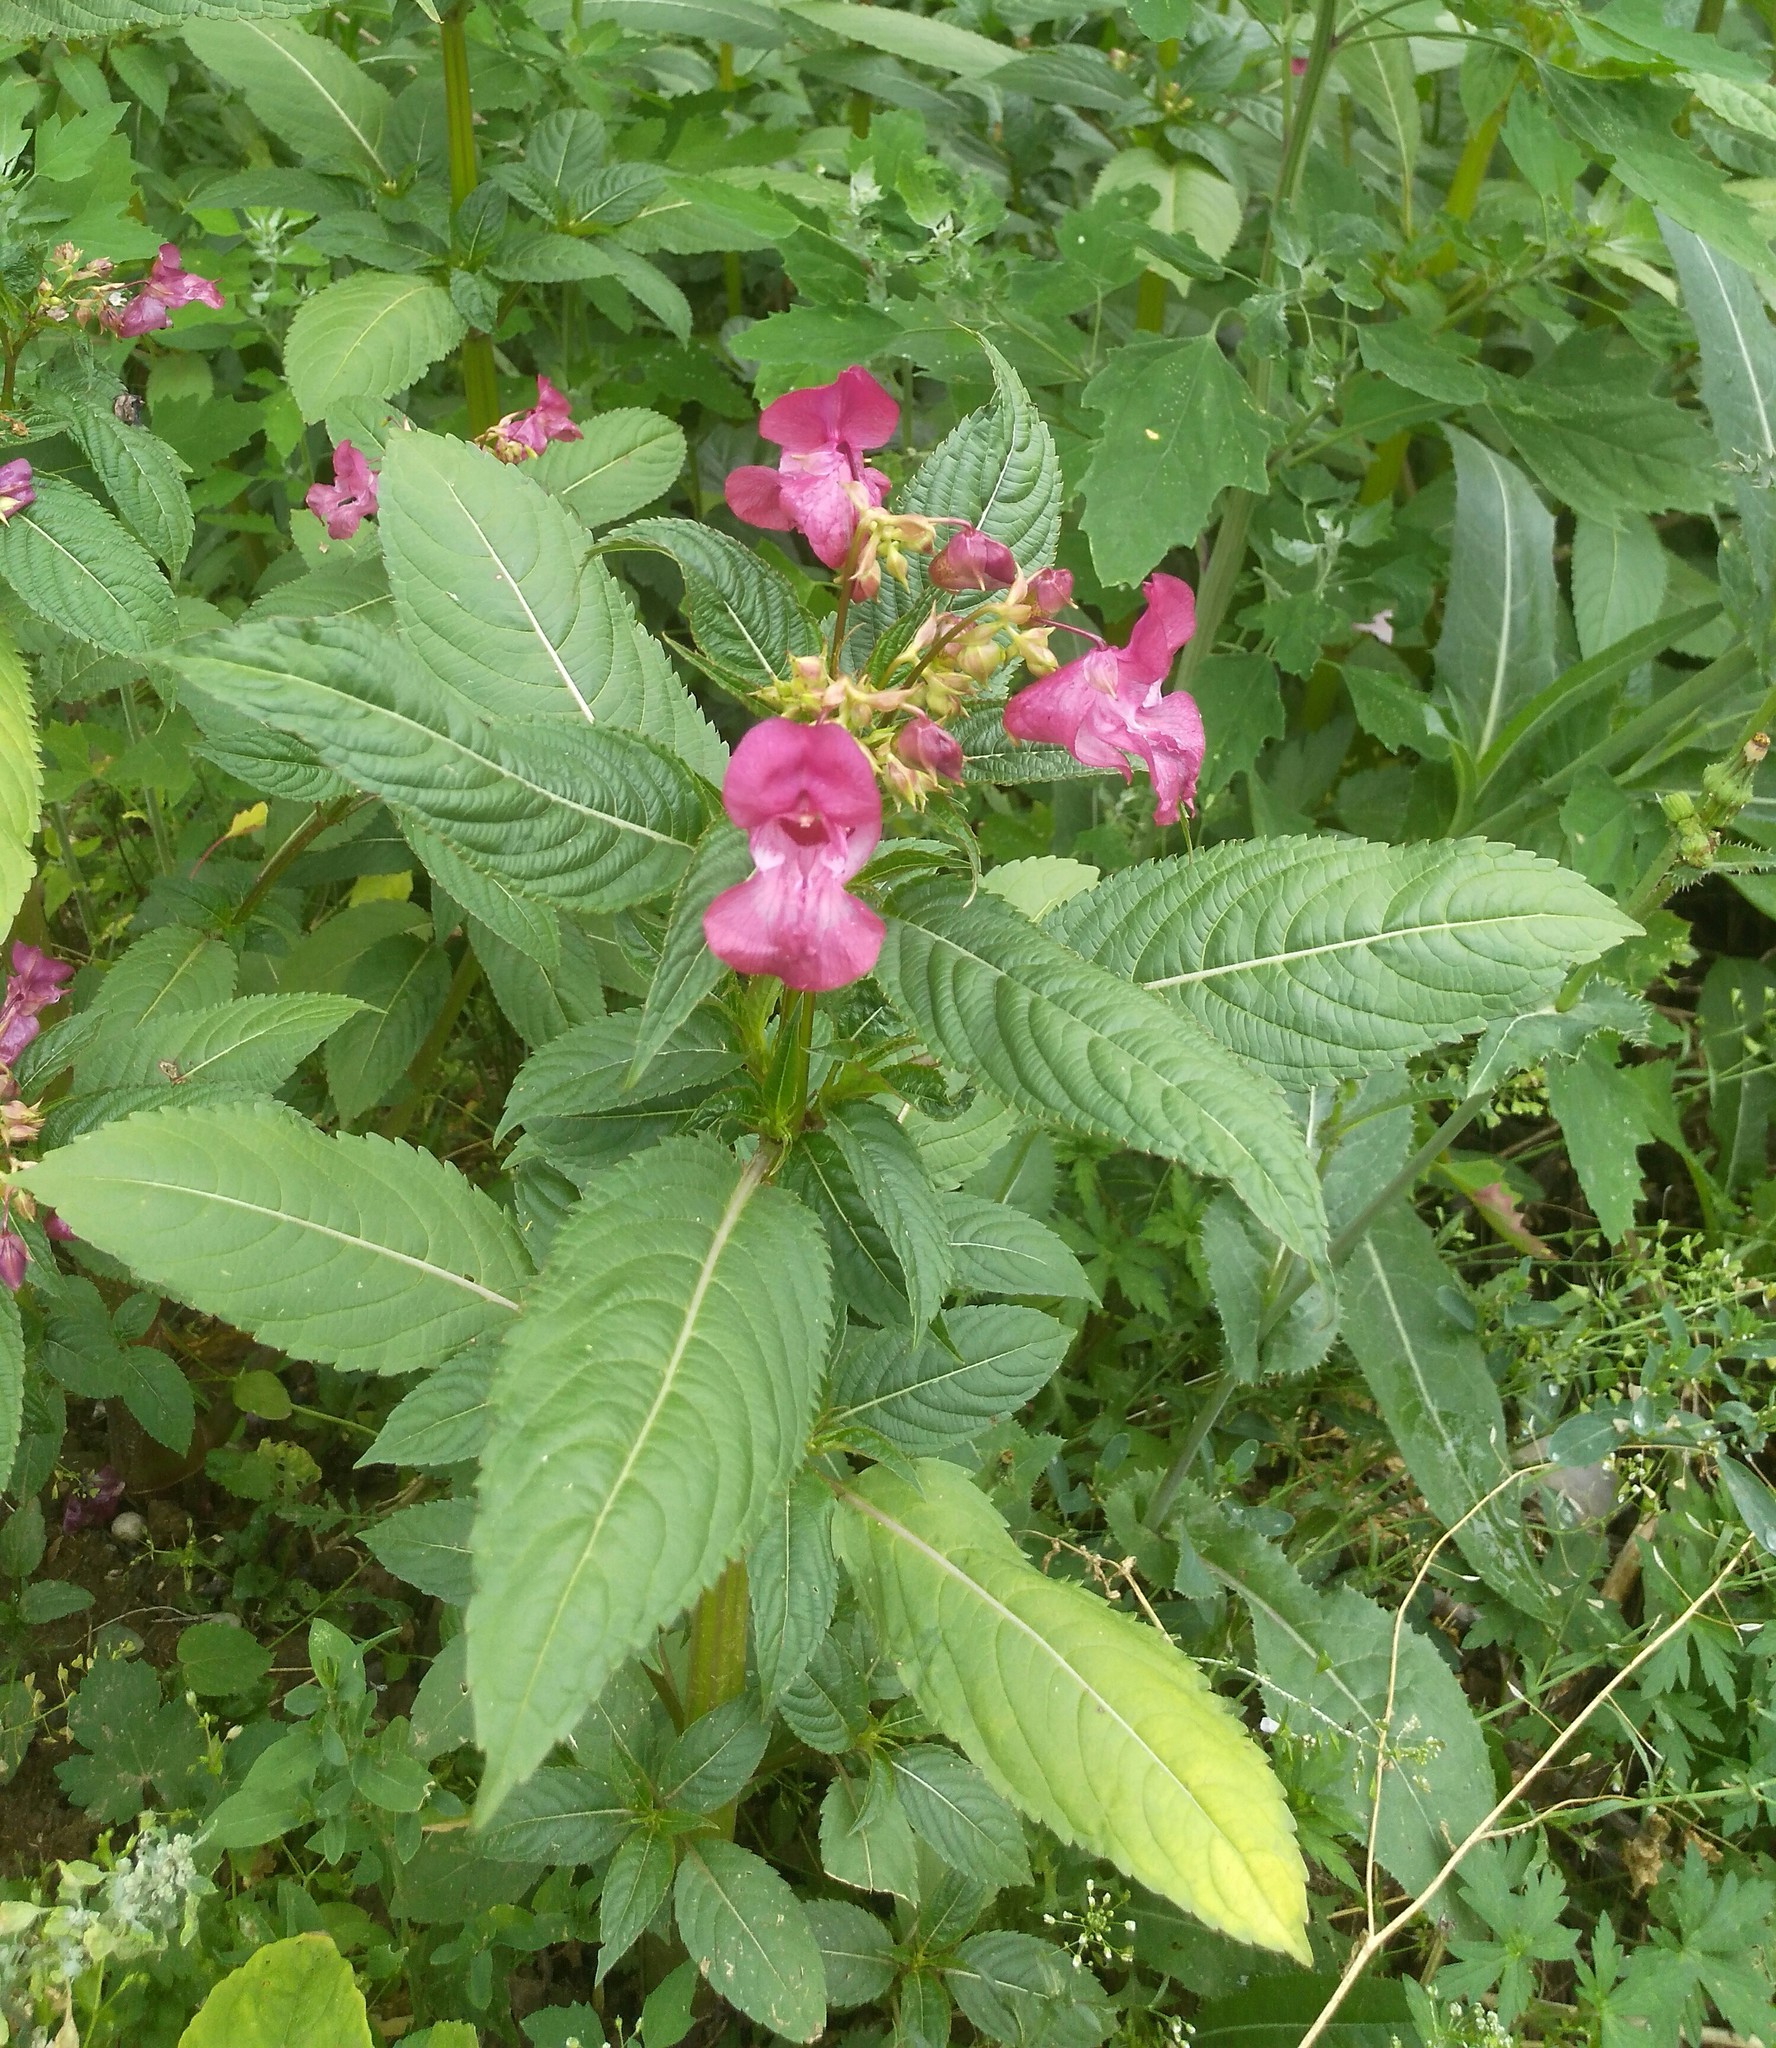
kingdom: Plantae
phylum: Tracheophyta
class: Magnoliopsida
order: Ericales
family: Balsaminaceae
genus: Impatiens
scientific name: Impatiens glandulifera
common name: Himalayan balsam
